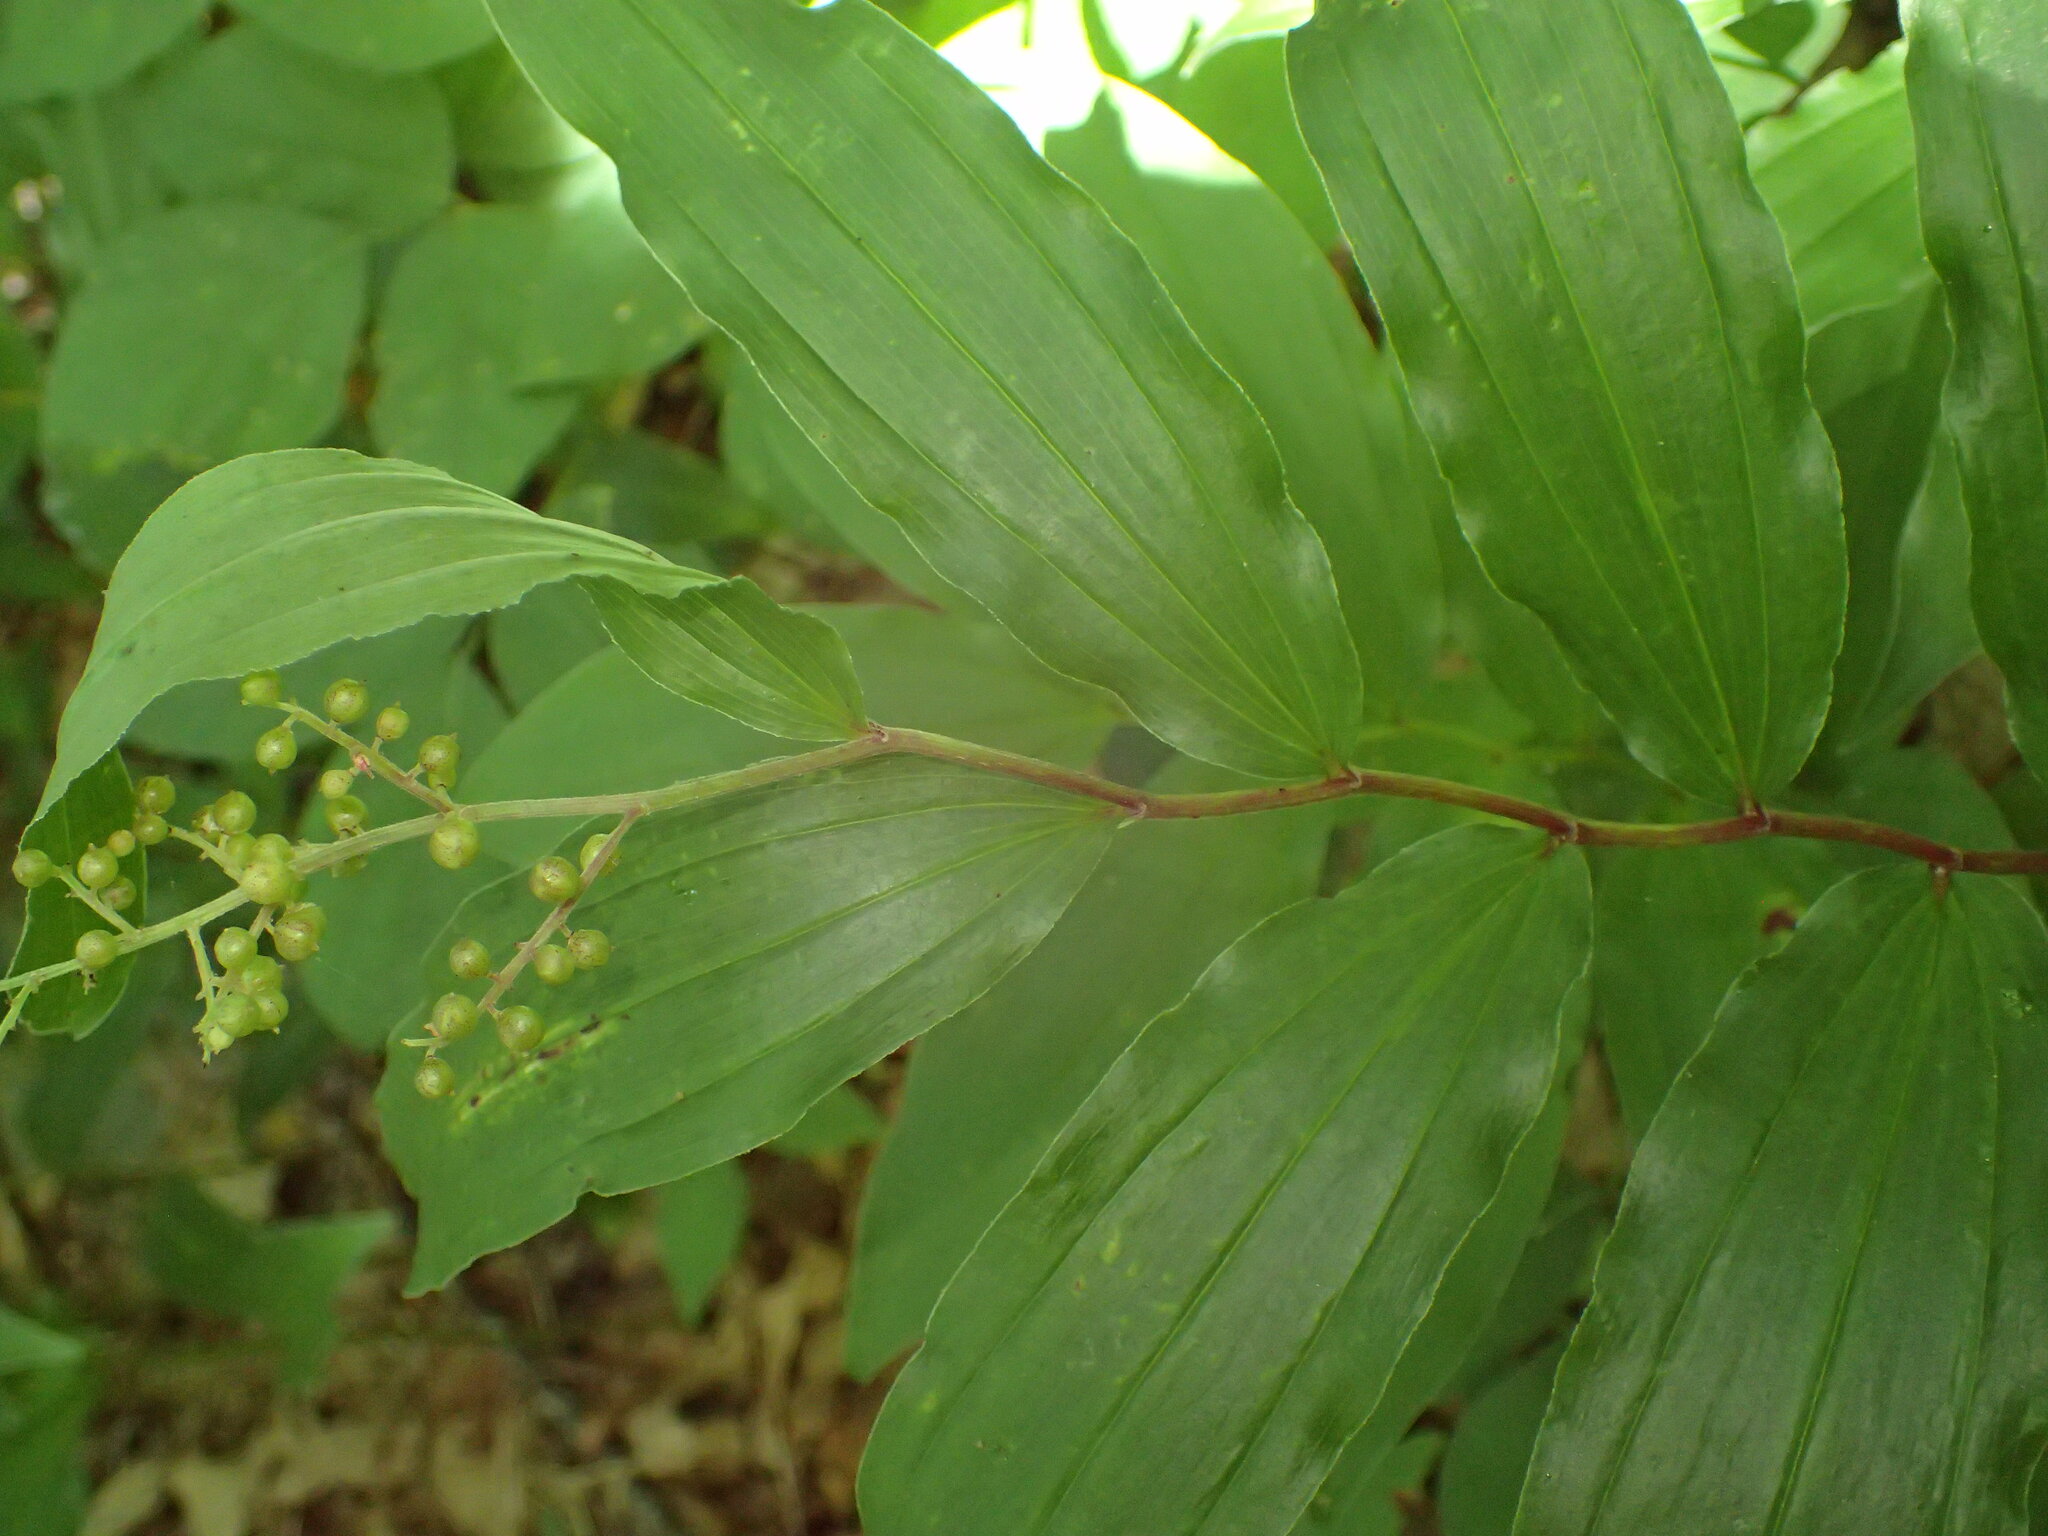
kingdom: Plantae
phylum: Tracheophyta
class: Liliopsida
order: Asparagales
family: Asparagaceae
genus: Maianthemum
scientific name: Maianthemum racemosum
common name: False spikenard
